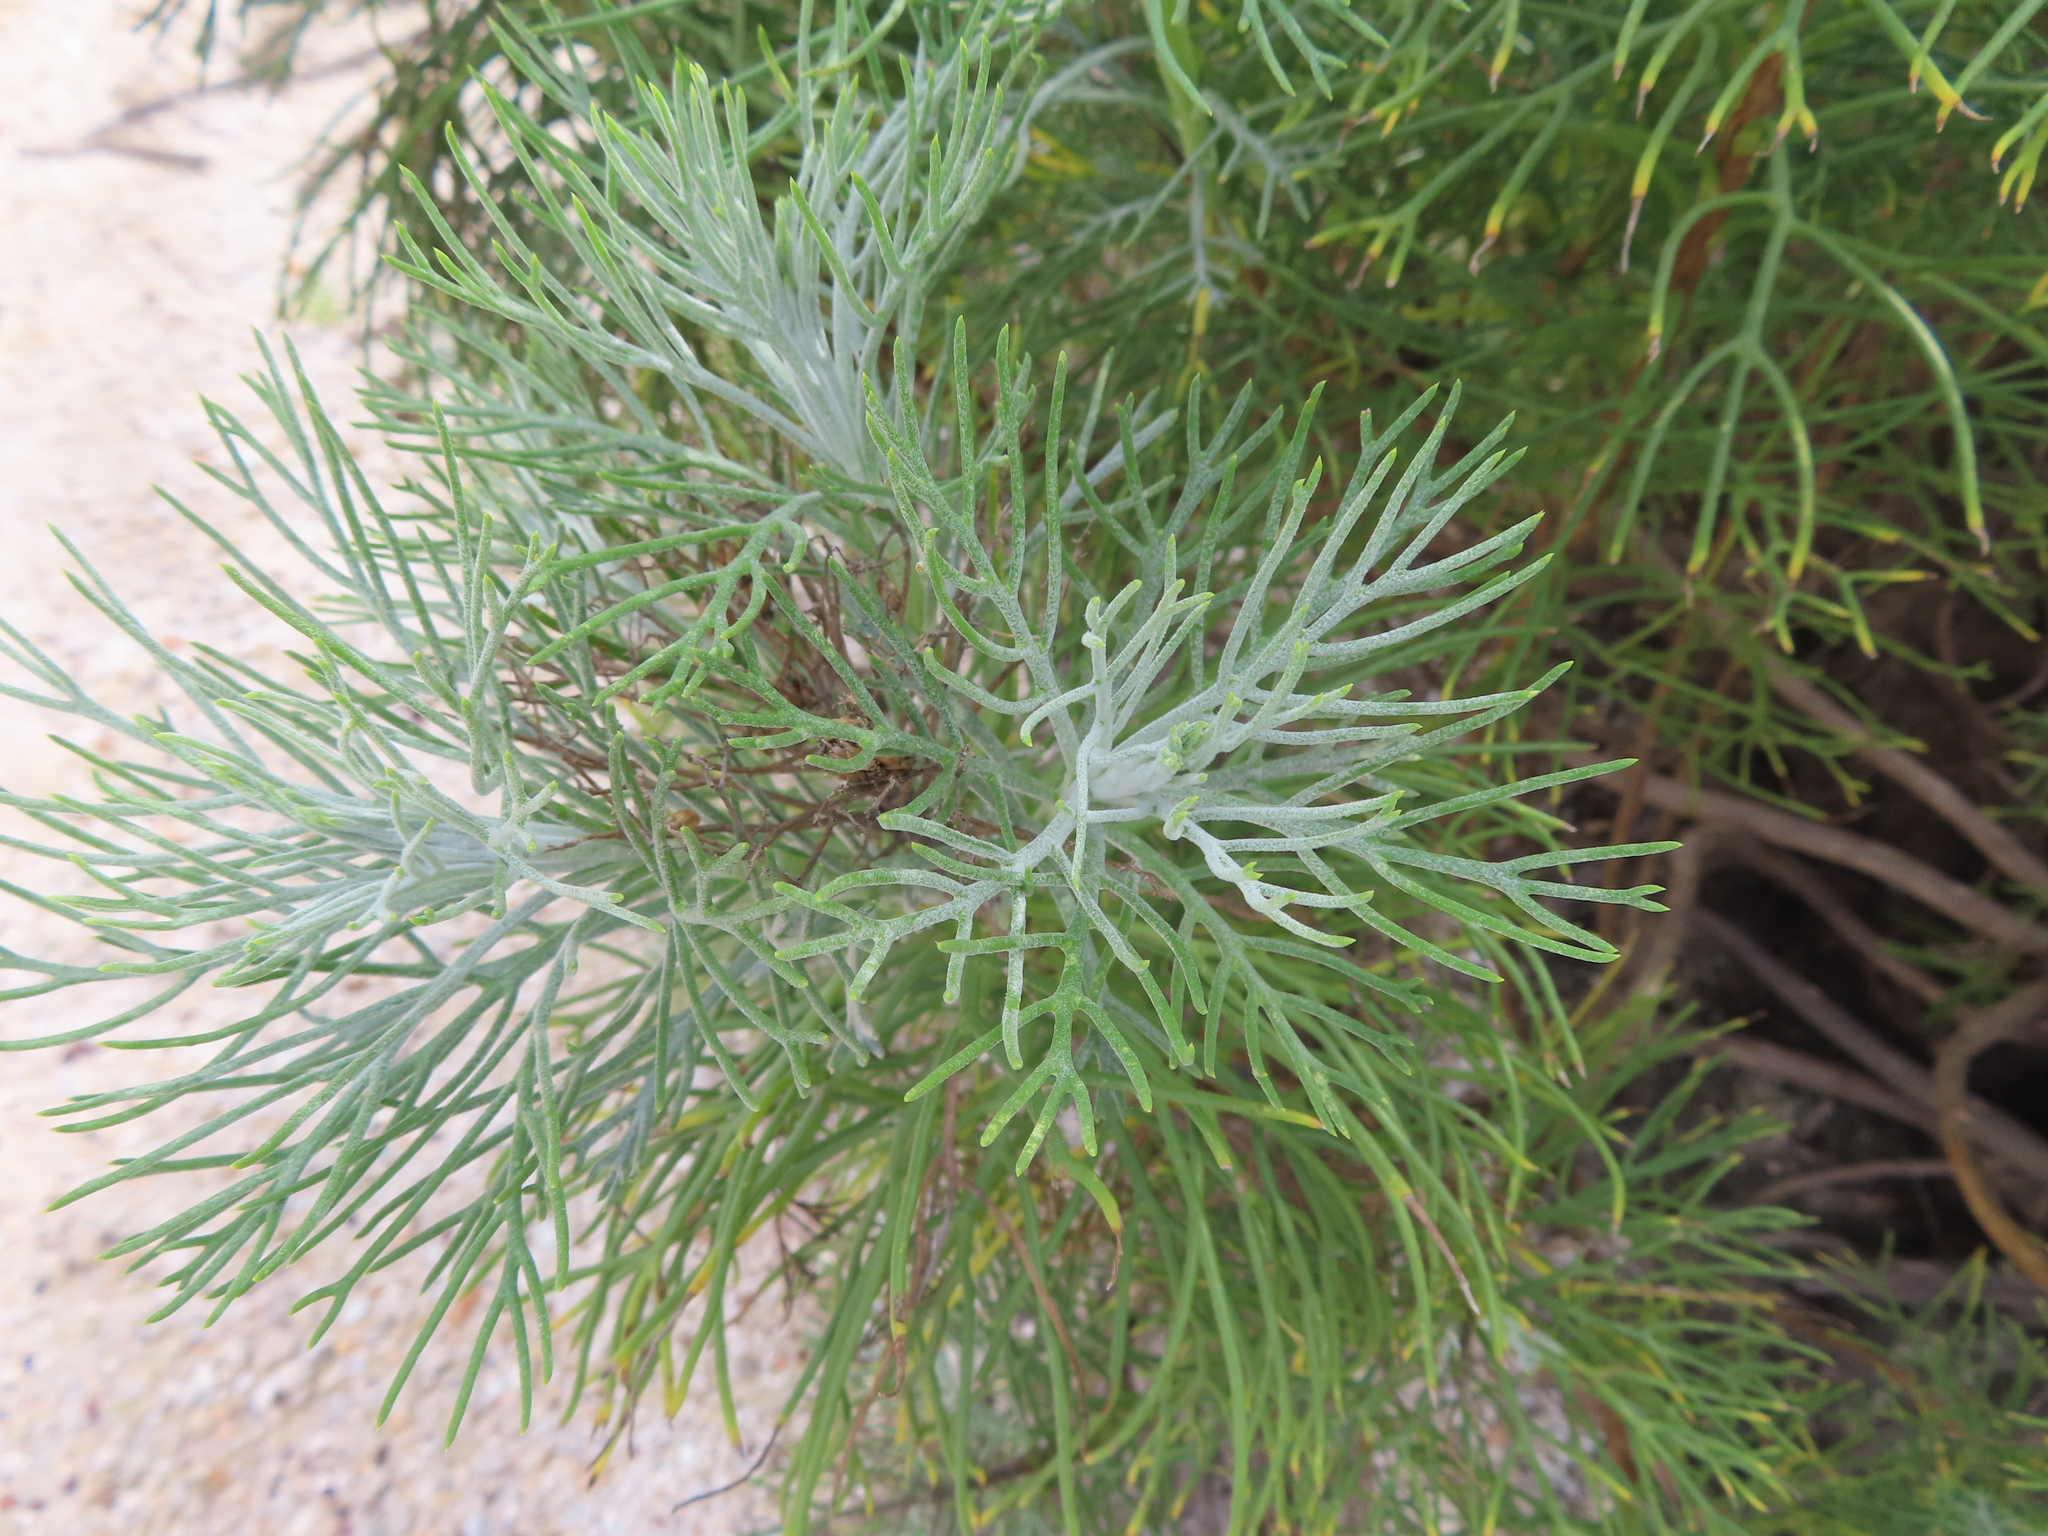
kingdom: Plantae
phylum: Tracheophyta
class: Magnoliopsida
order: Asterales
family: Asteraceae
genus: Hymenolepis
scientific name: Hymenolepis crithmifolia
